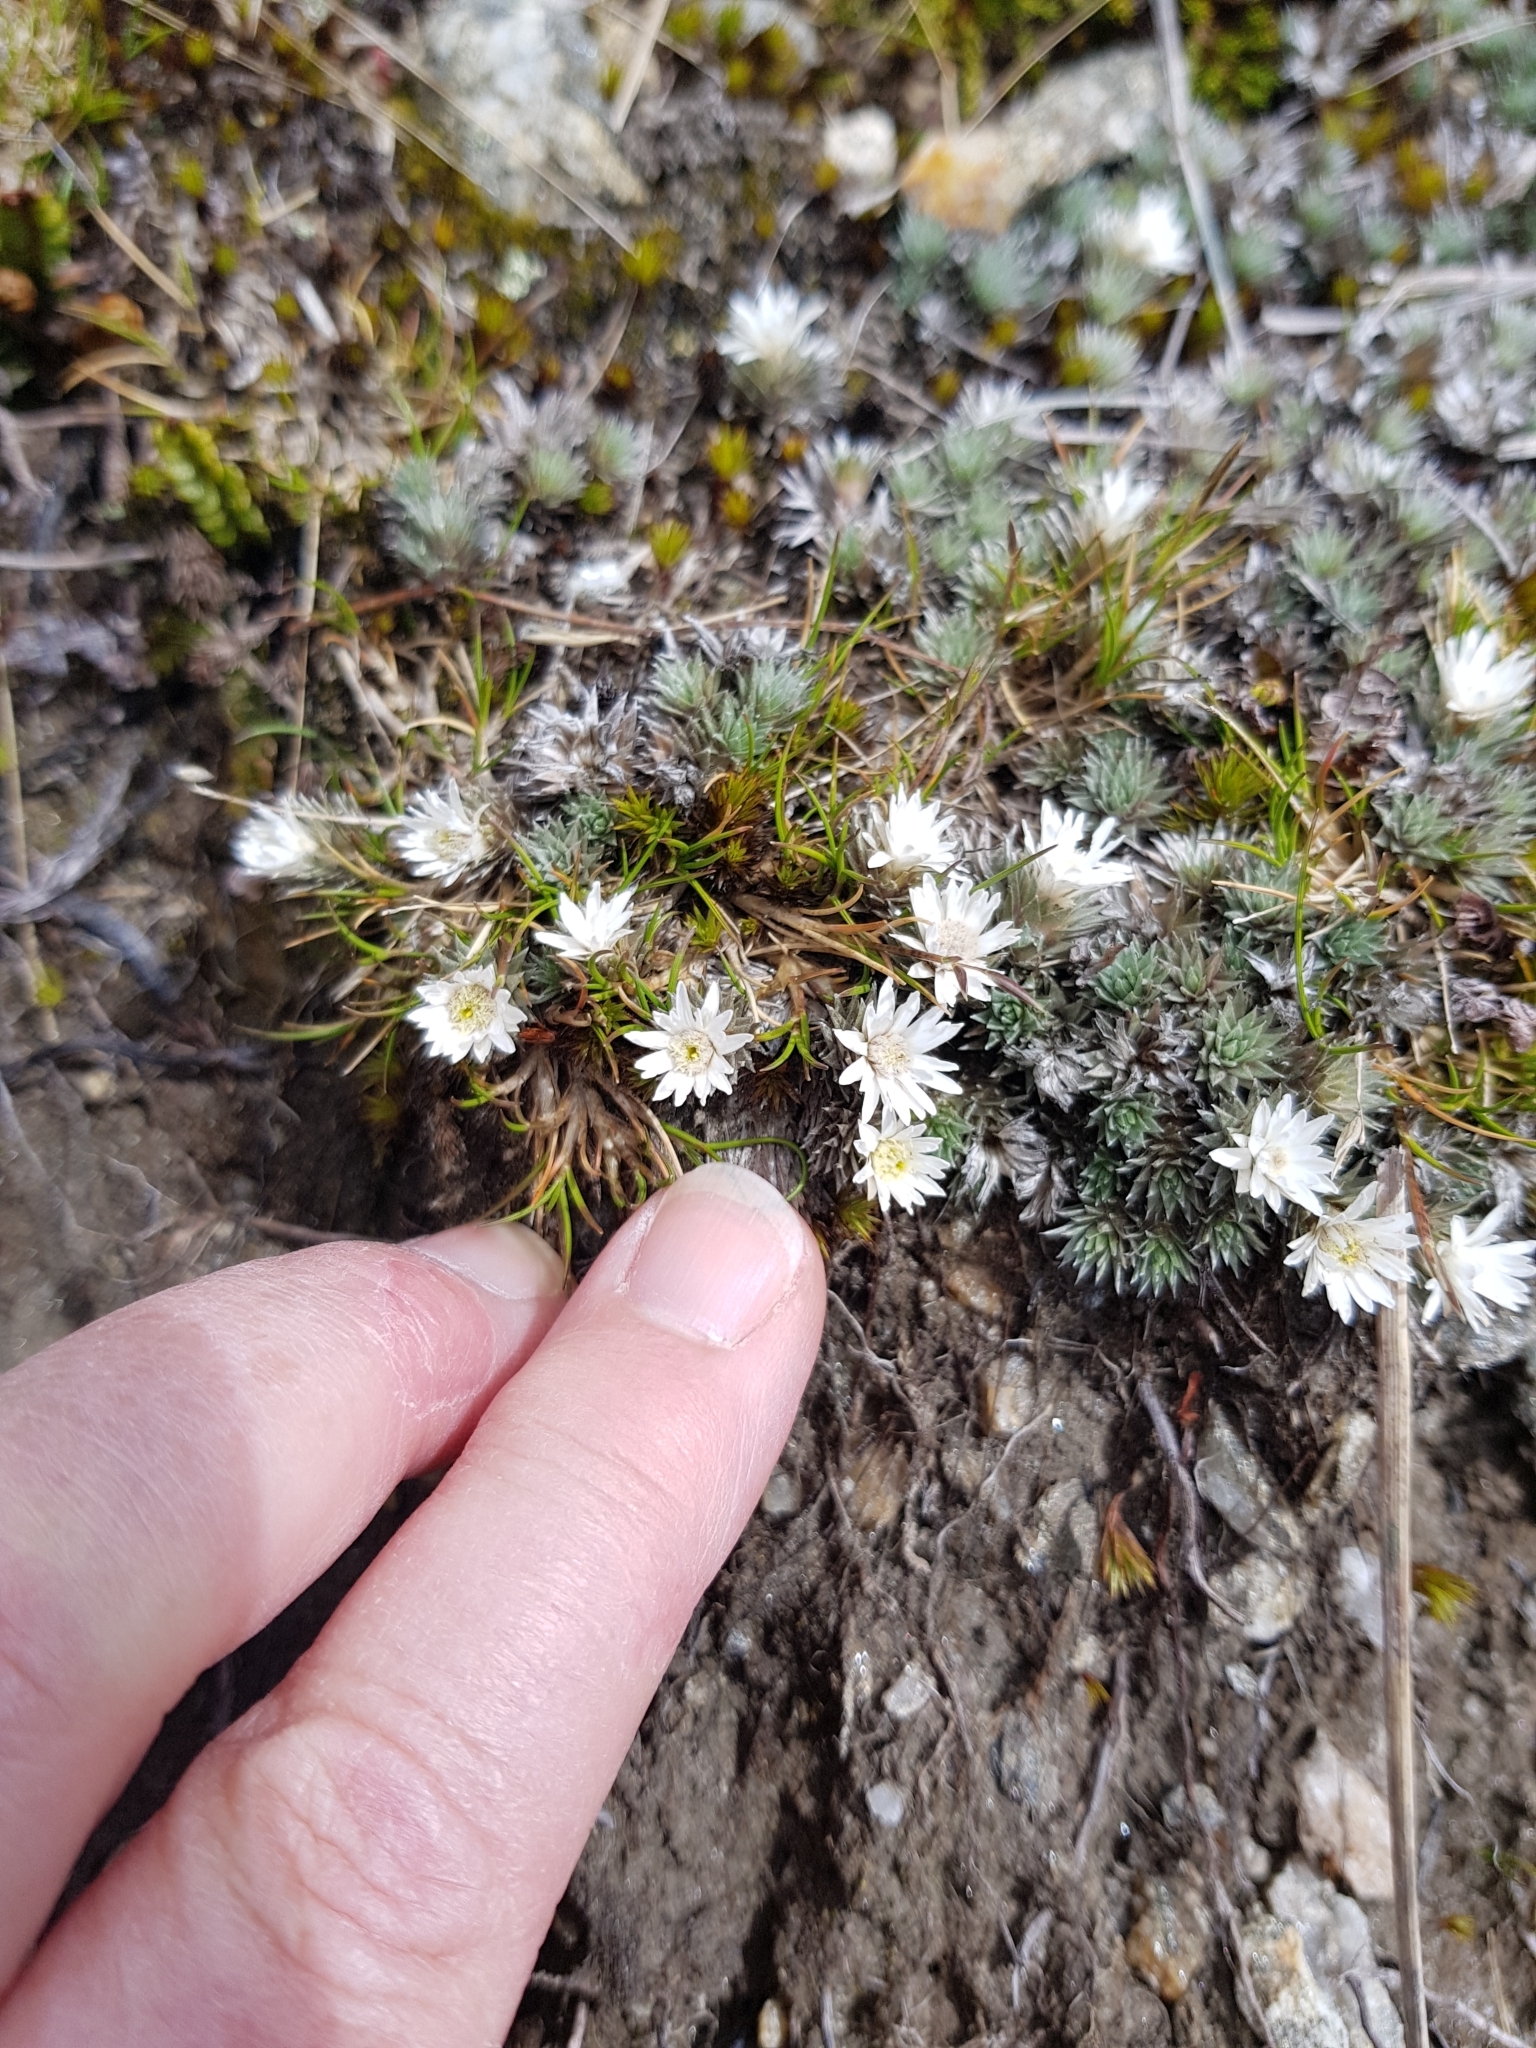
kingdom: Plantae
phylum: Tracheophyta
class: Magnoliopsida
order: Asterales
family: Asteraceae
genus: Raoulia
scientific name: Raoulia grandiflora
